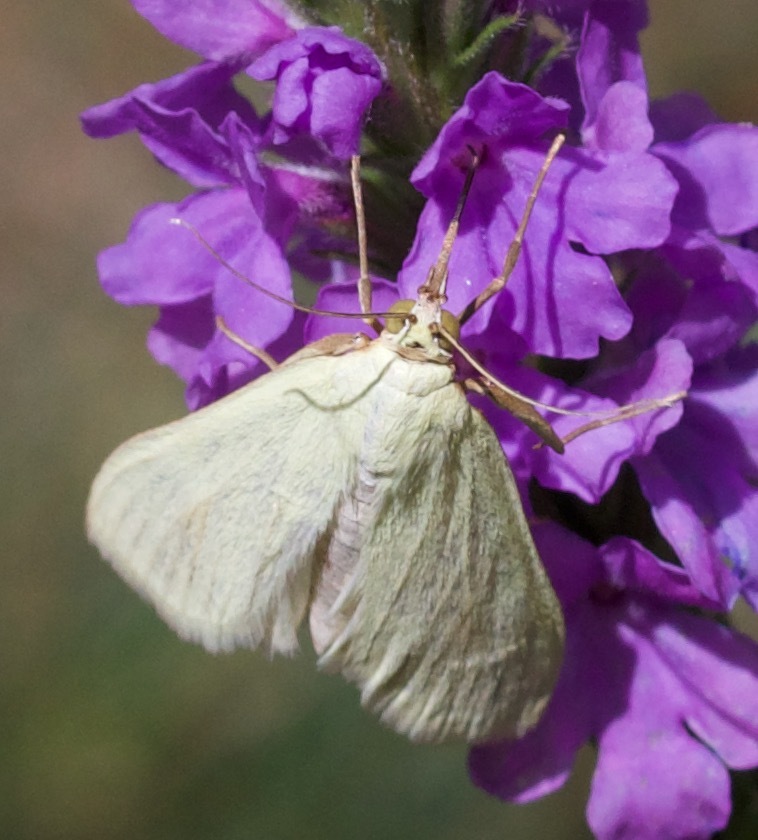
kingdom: Animalia
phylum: Arthropoda
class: Insecta
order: Lepidoptera
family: Crambidae
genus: Sitochroa
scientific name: Sitochroa palealis
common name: Greenish-yellow sitochroa moth
